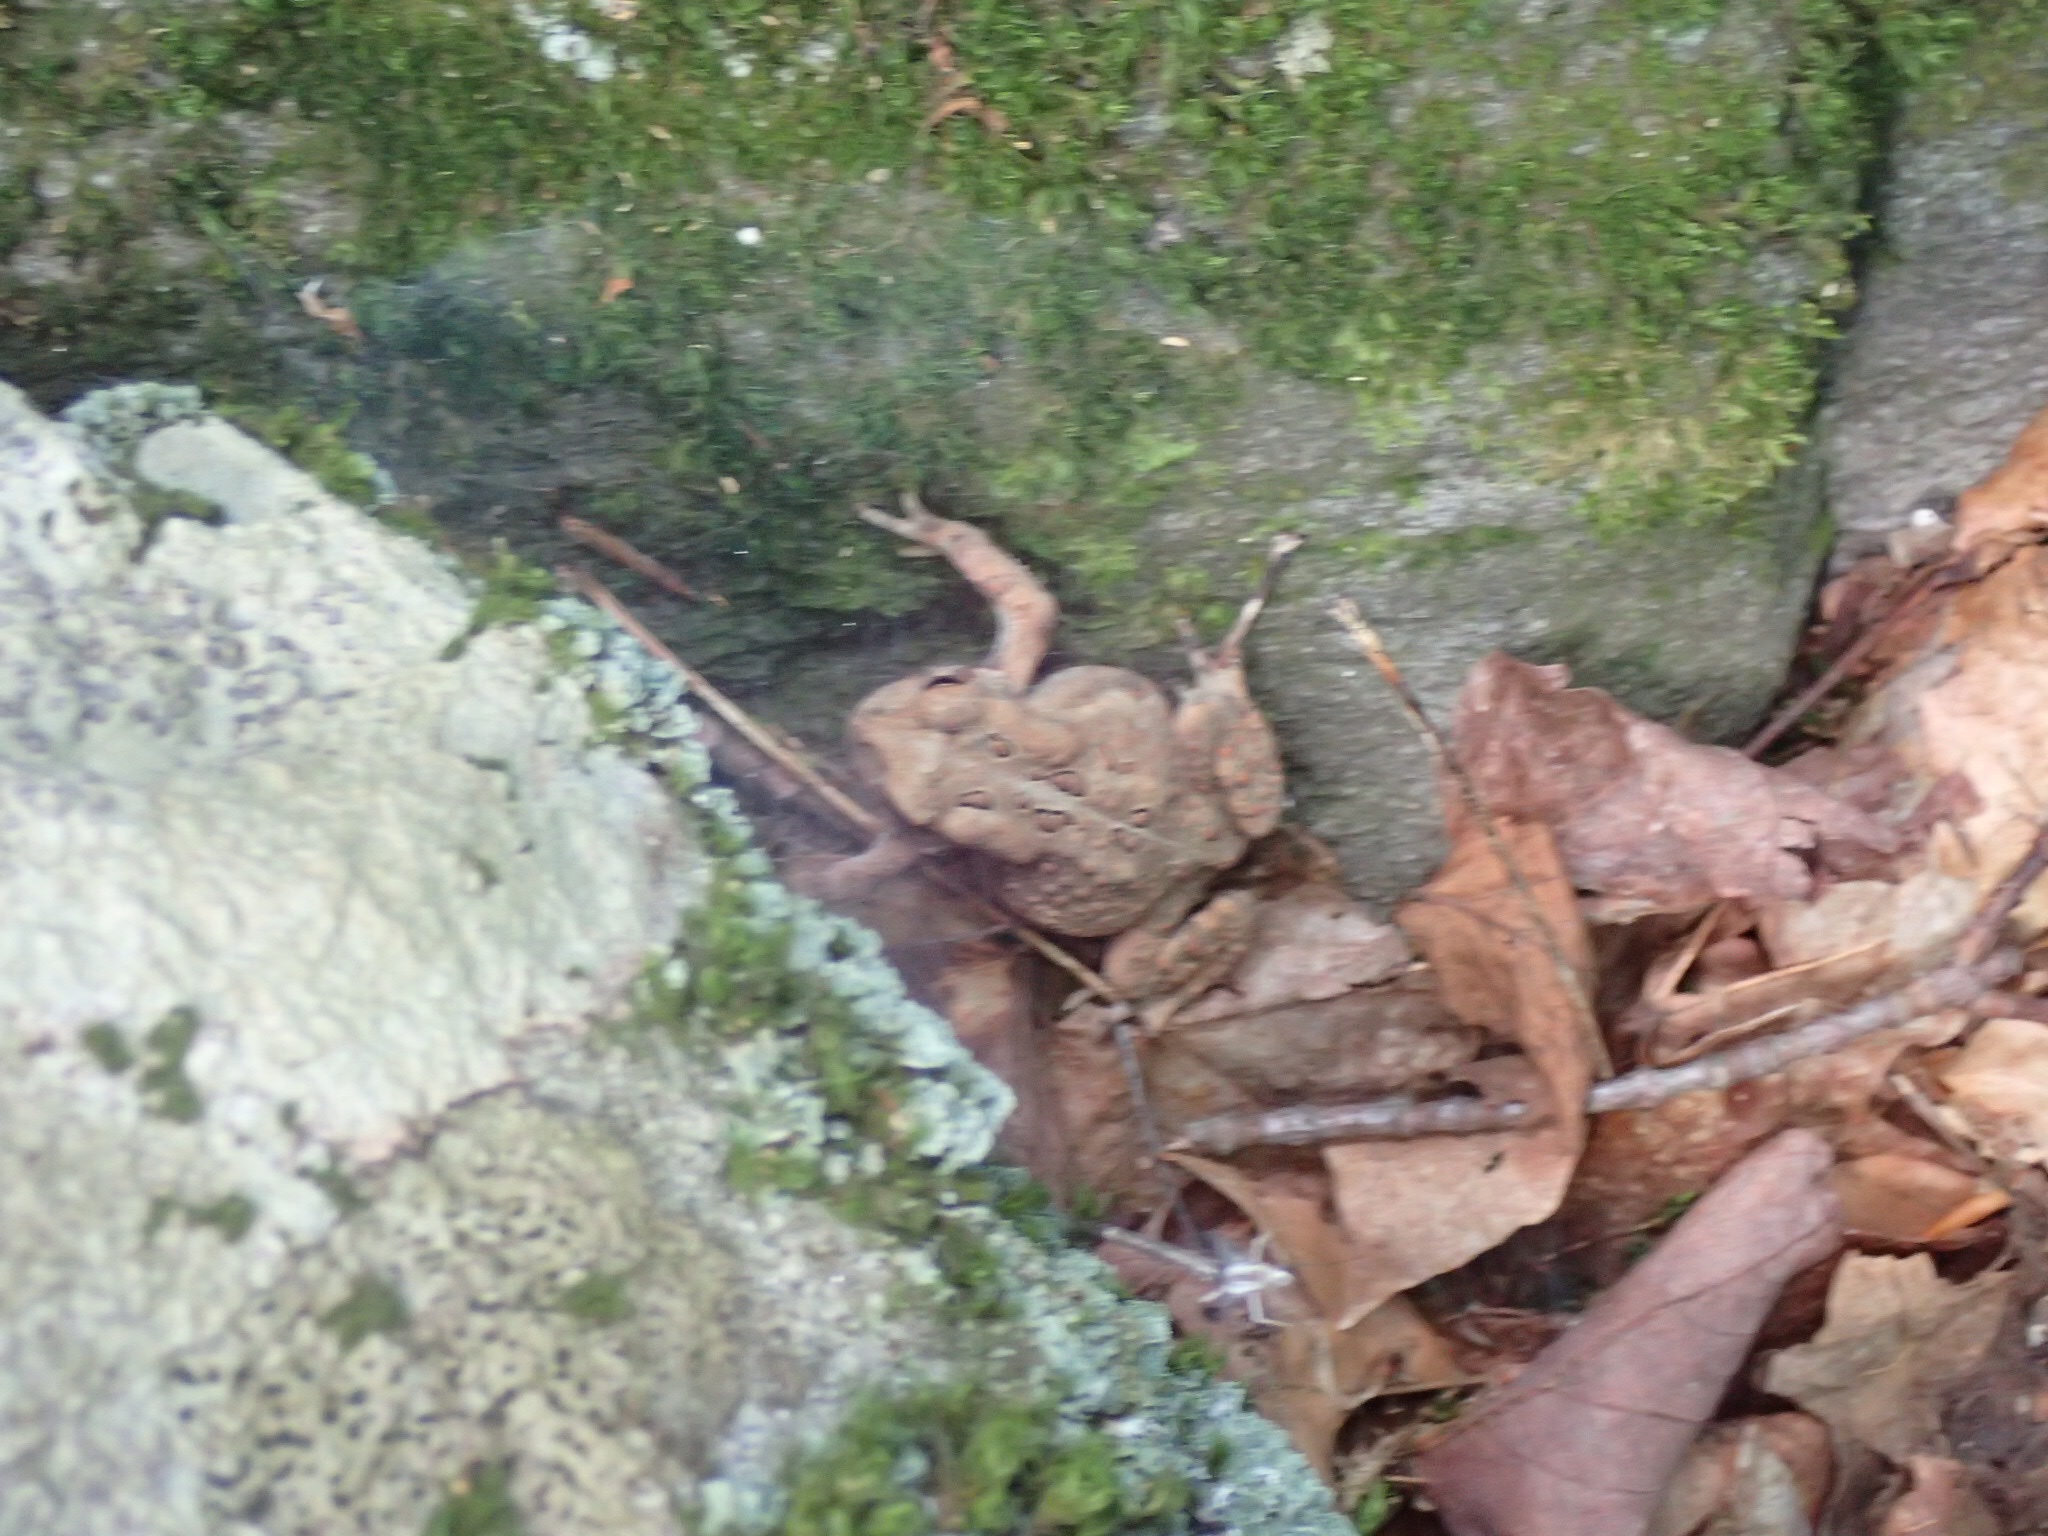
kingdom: Animalia
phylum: Chordata
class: Amphibia
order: Anura
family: Bufonidae
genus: Anaxyrus
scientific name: Anaxyrus americanus
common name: American toad
